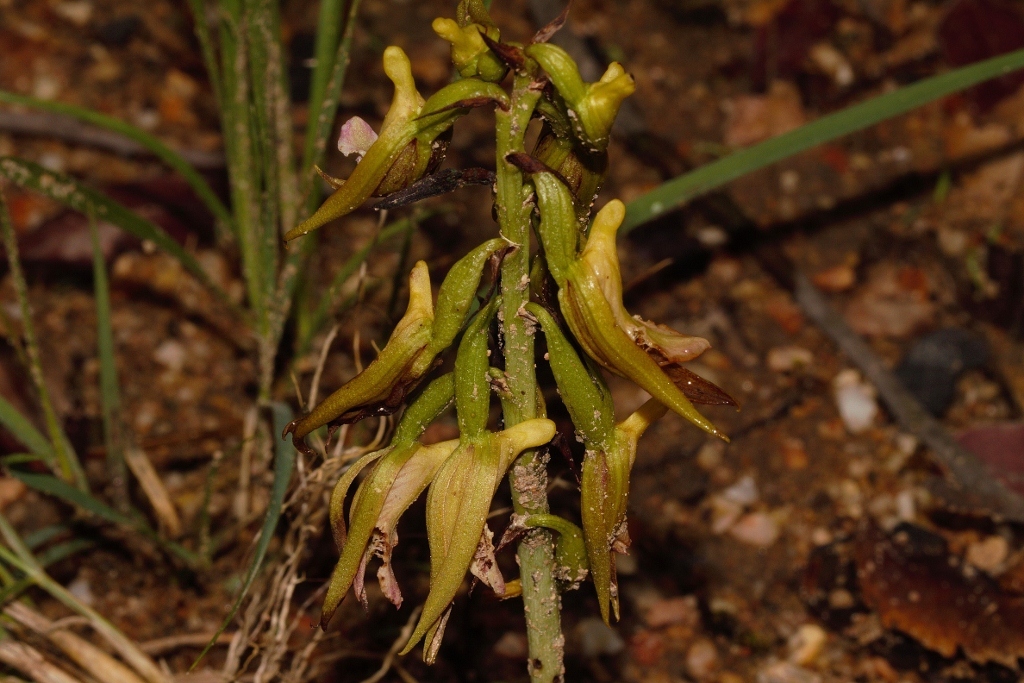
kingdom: Plantae
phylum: Tracheophyta
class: Liliopsida
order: Asparagales
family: Orchidaceae
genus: Eulophia
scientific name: Eulophia nyasae
